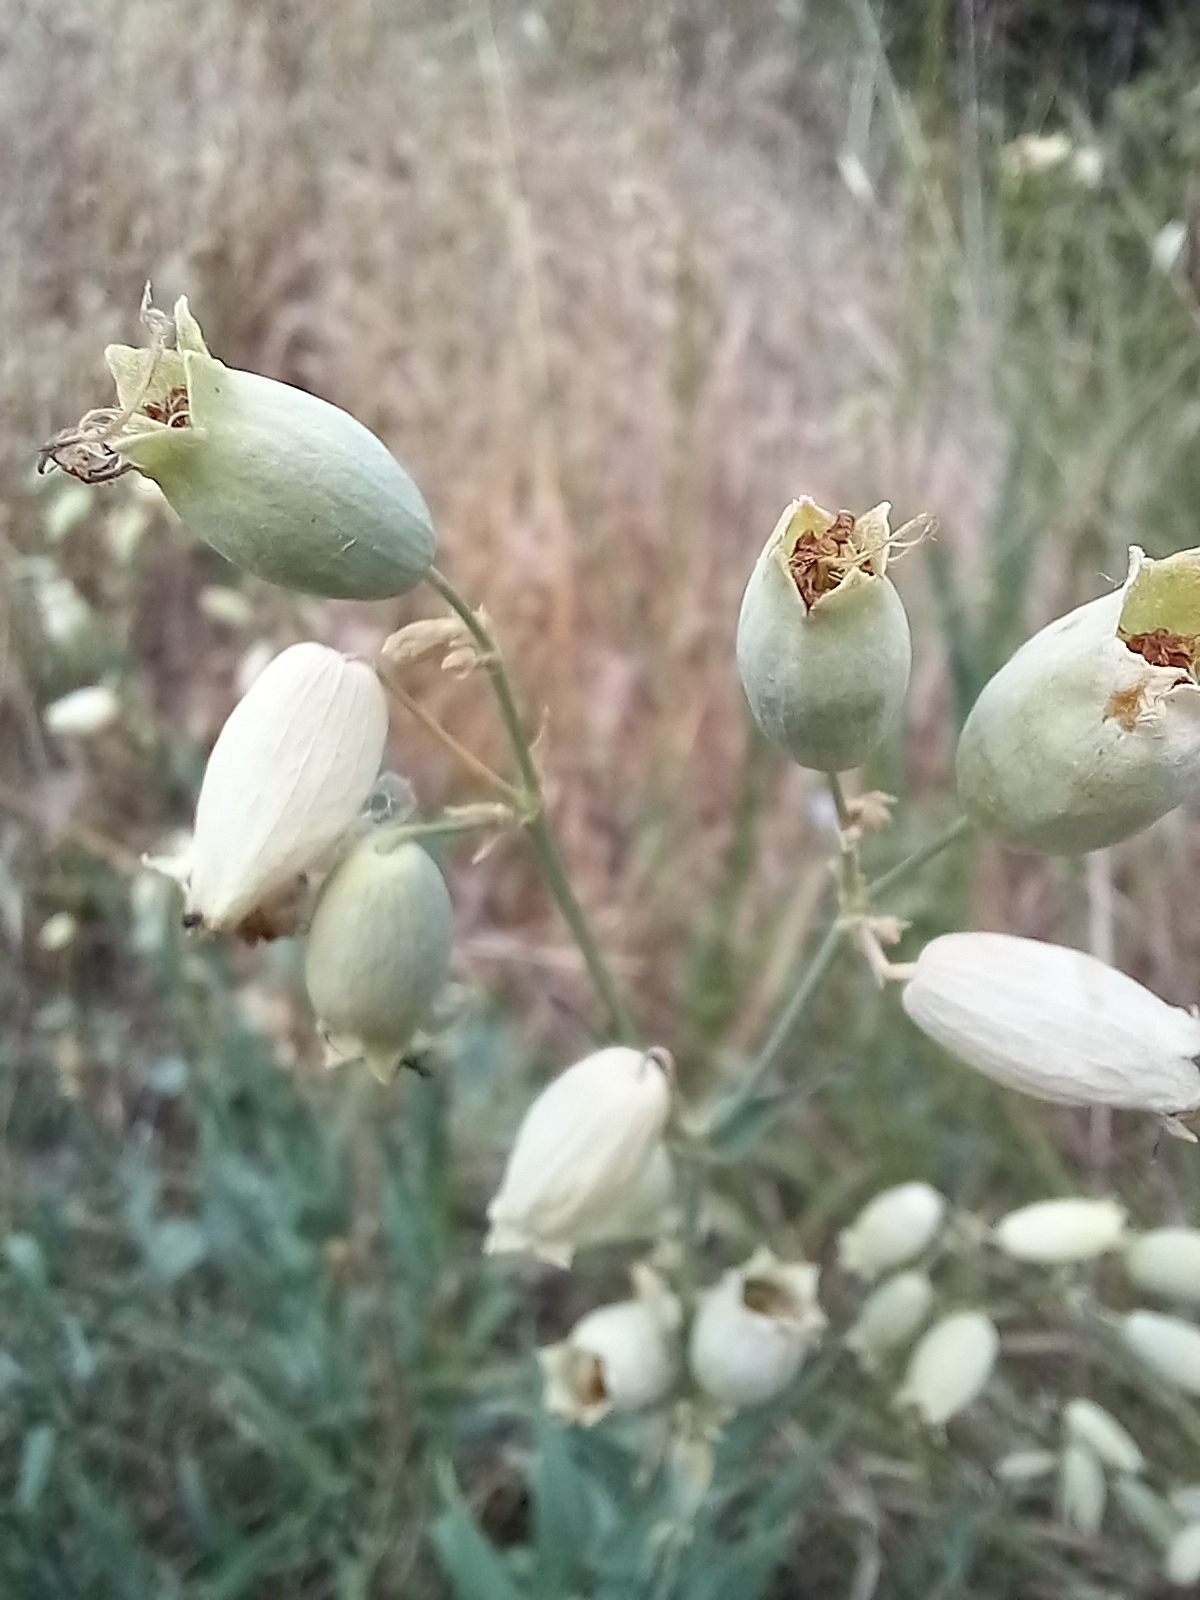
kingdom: Plantae
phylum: Tracheophyta
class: Magnoliopsida
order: Caryophyllales
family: Caryophyllaceae
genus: Silene
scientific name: Silene vulgaris
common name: Bladder campion
